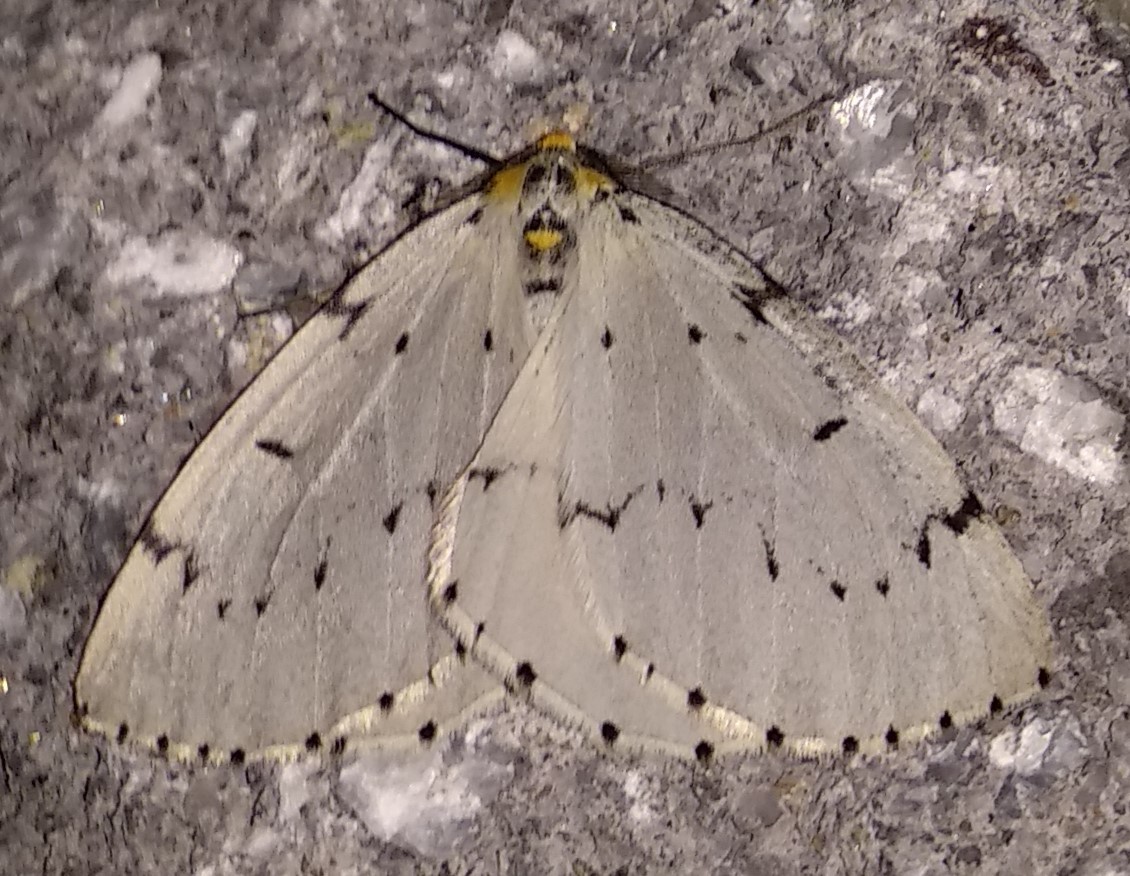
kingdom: Animalia
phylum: Arthropoda
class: Insecta
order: Lepidoptera
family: Geometridae
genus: Cingilia
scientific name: Cingilia catenaria
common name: Chain-dotted geometer
